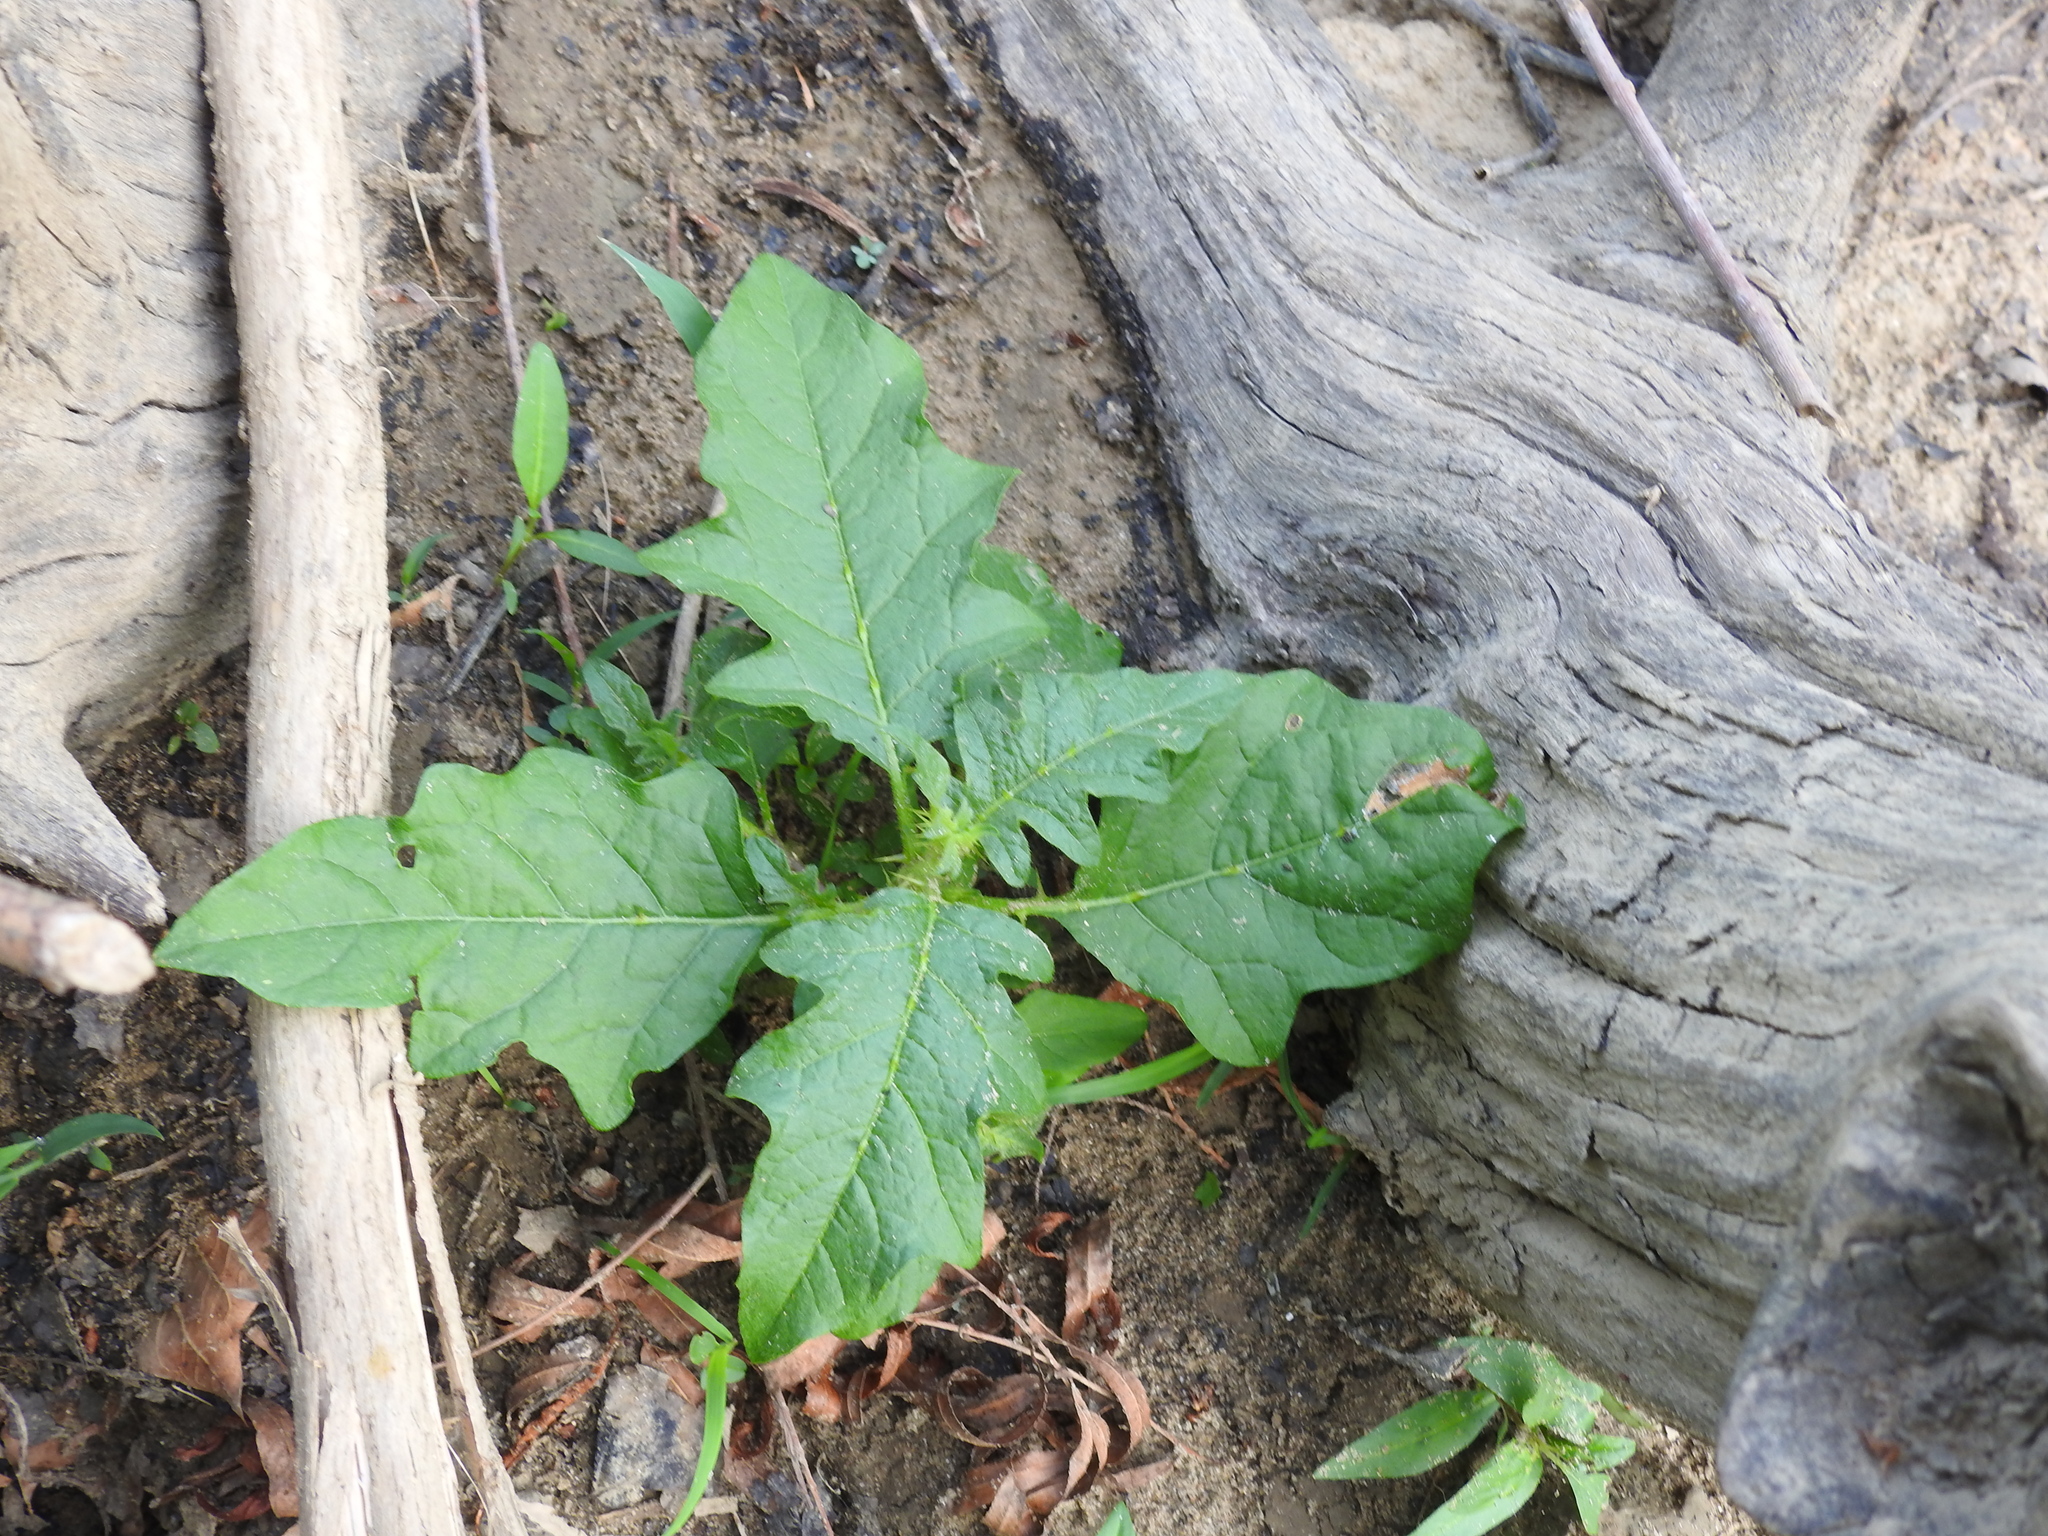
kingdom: Plantae
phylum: Tracheophyta
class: Magnoliopsida
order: Solanales
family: Solanaceae
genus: Solanum
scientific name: Solanum carolinense
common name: Horse-nettle
